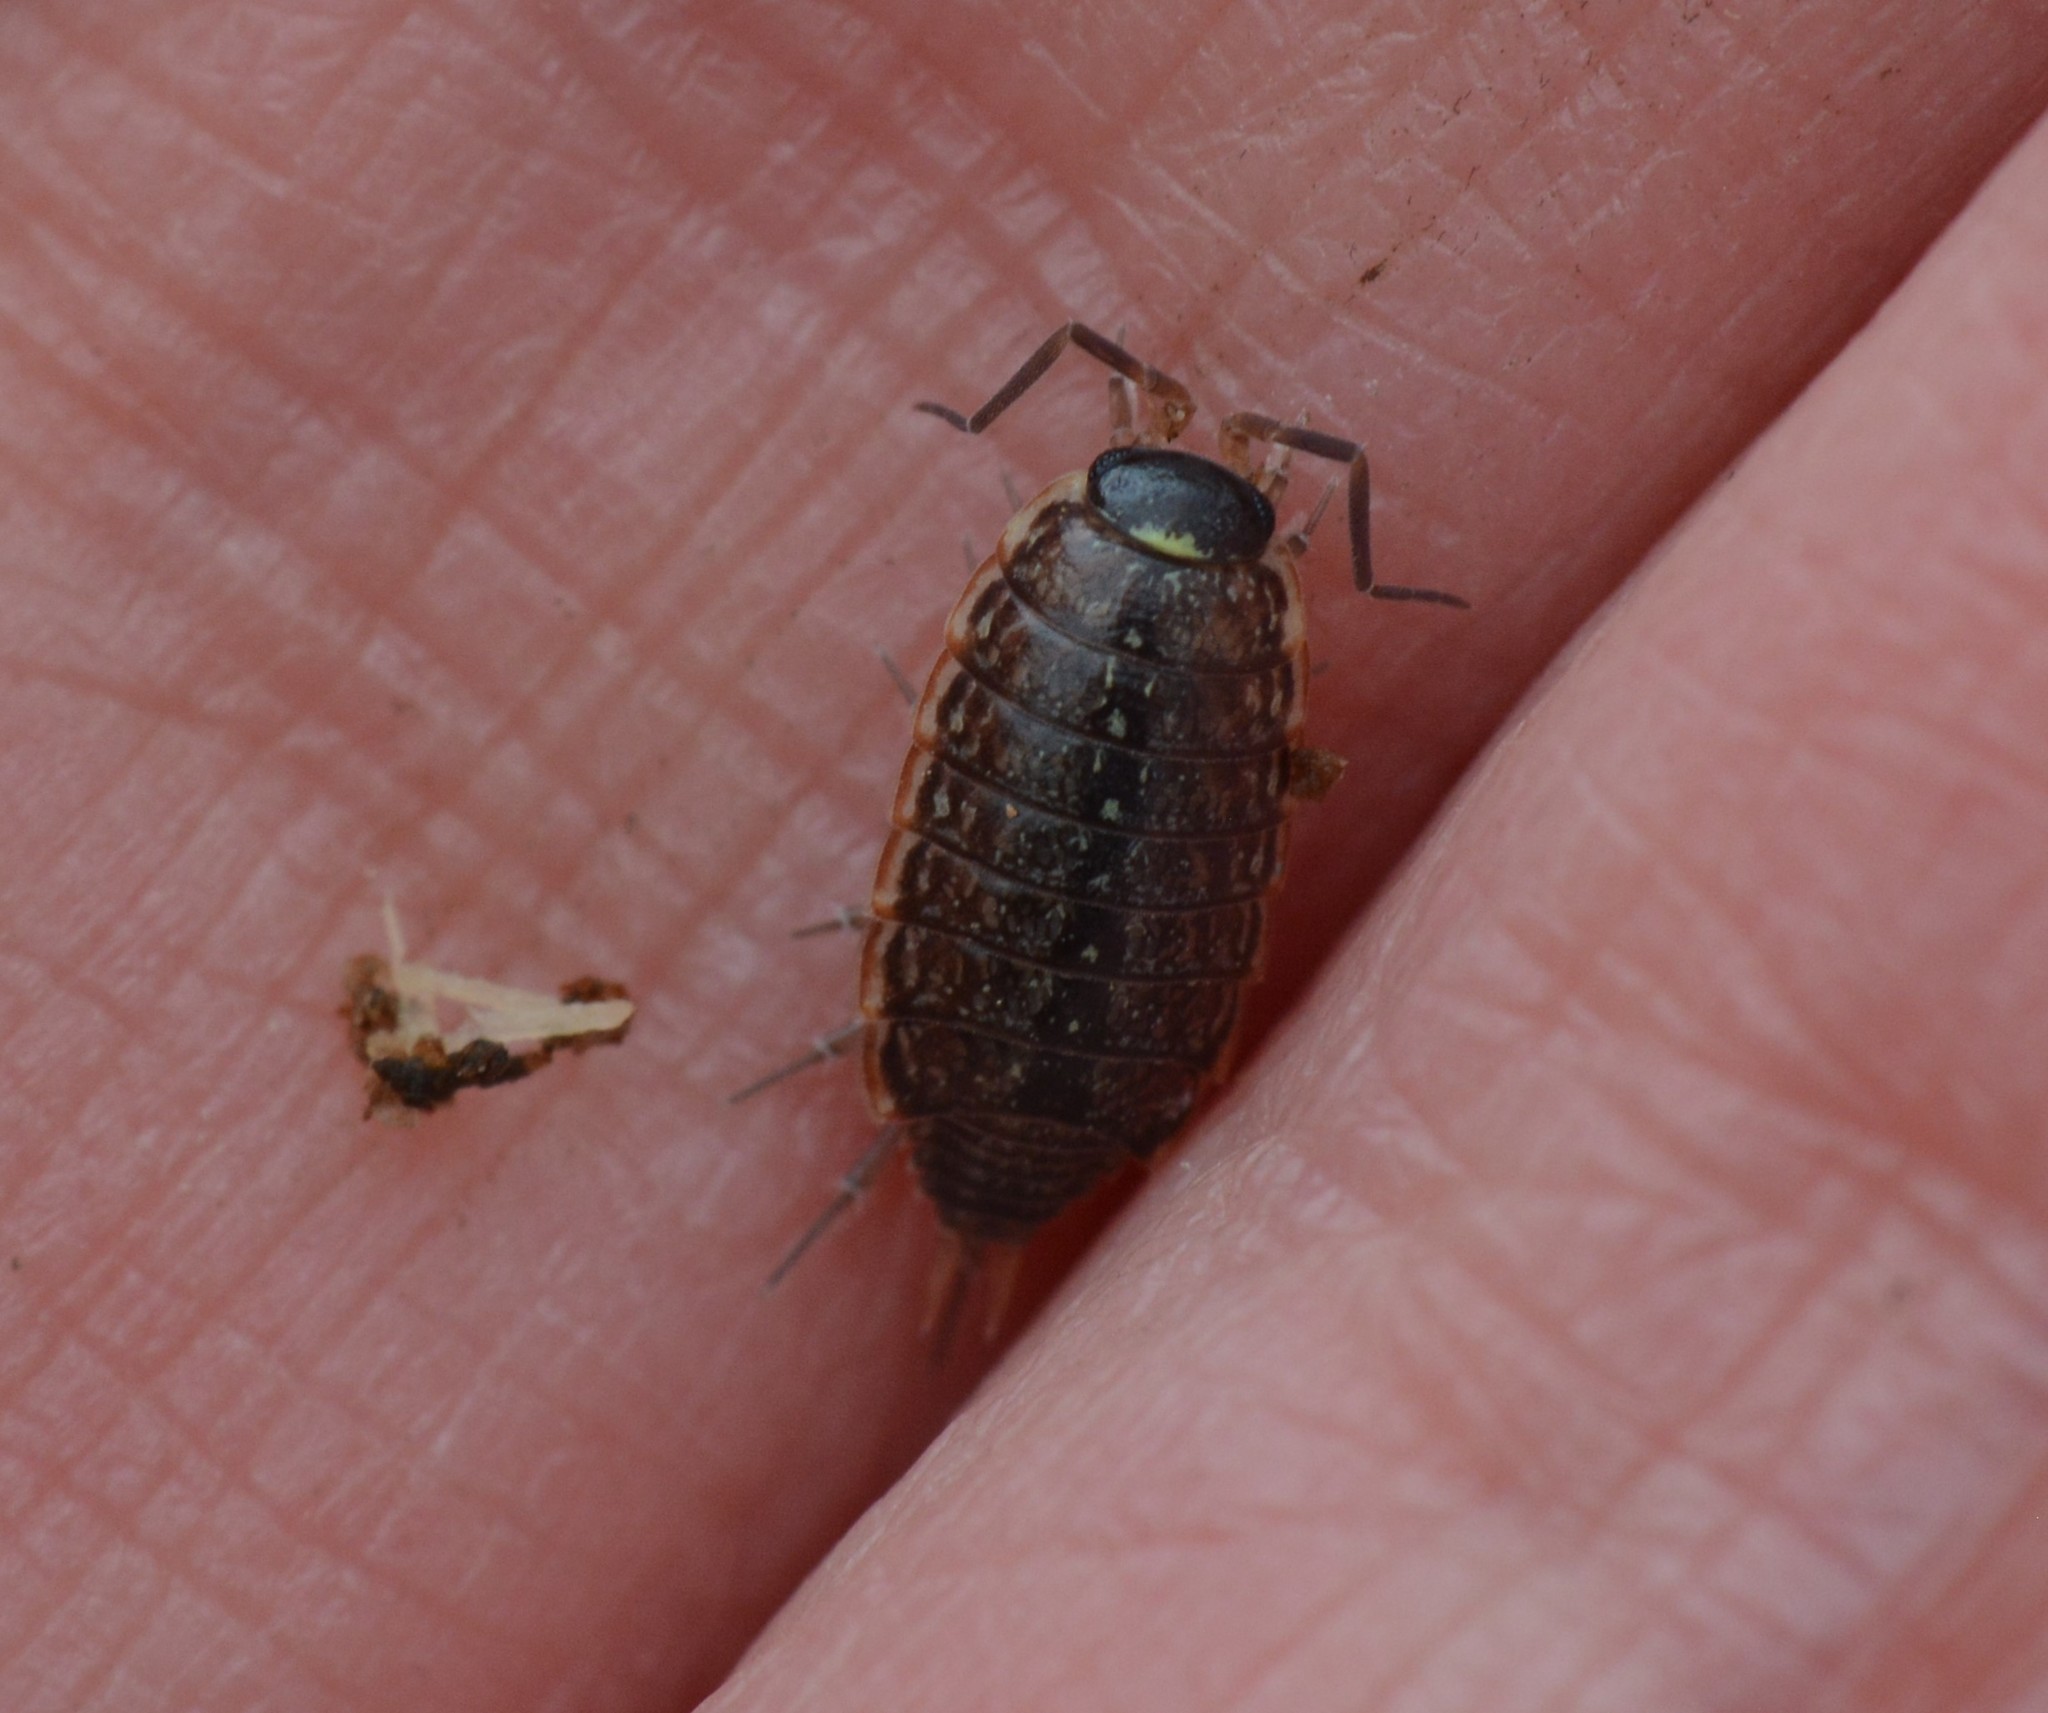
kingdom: Animalia
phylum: Arthropoda
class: Malacostraca
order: Isopoda
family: Philosciidae
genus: Philoscia
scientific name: Philoscia muscorum
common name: Common striped woodlouse
